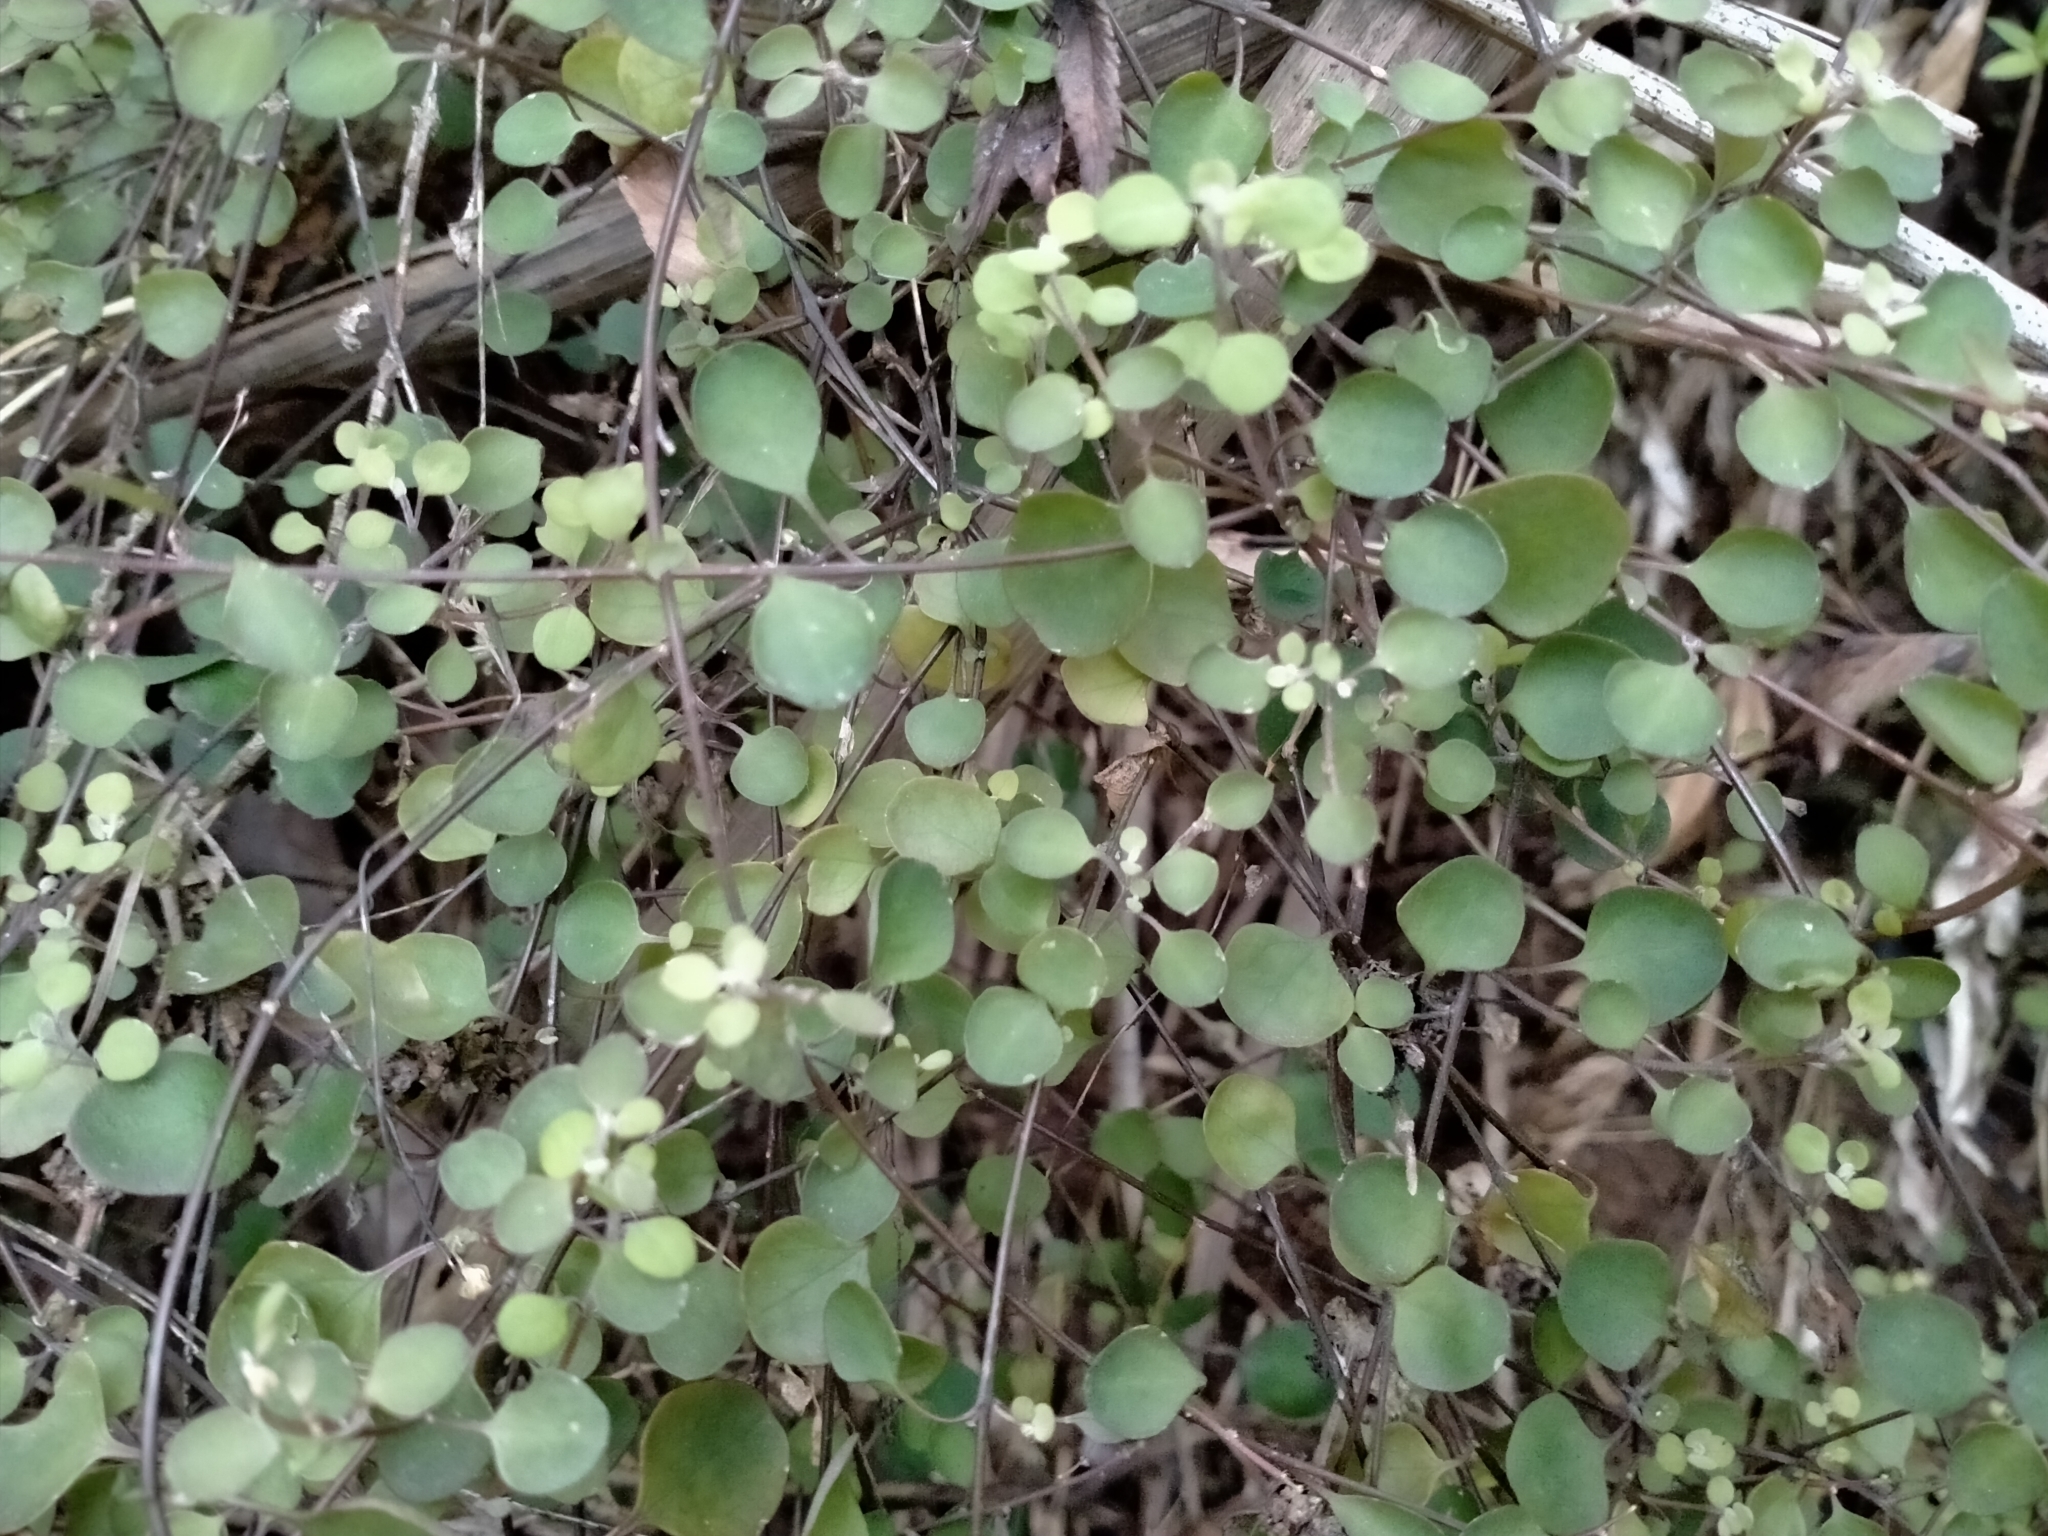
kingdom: Plantae
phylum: Tracheophyta
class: Magnoliopsida
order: Caryophyllales
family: Amaranthaceae
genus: Chenopodium
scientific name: Chenopodium allanii
